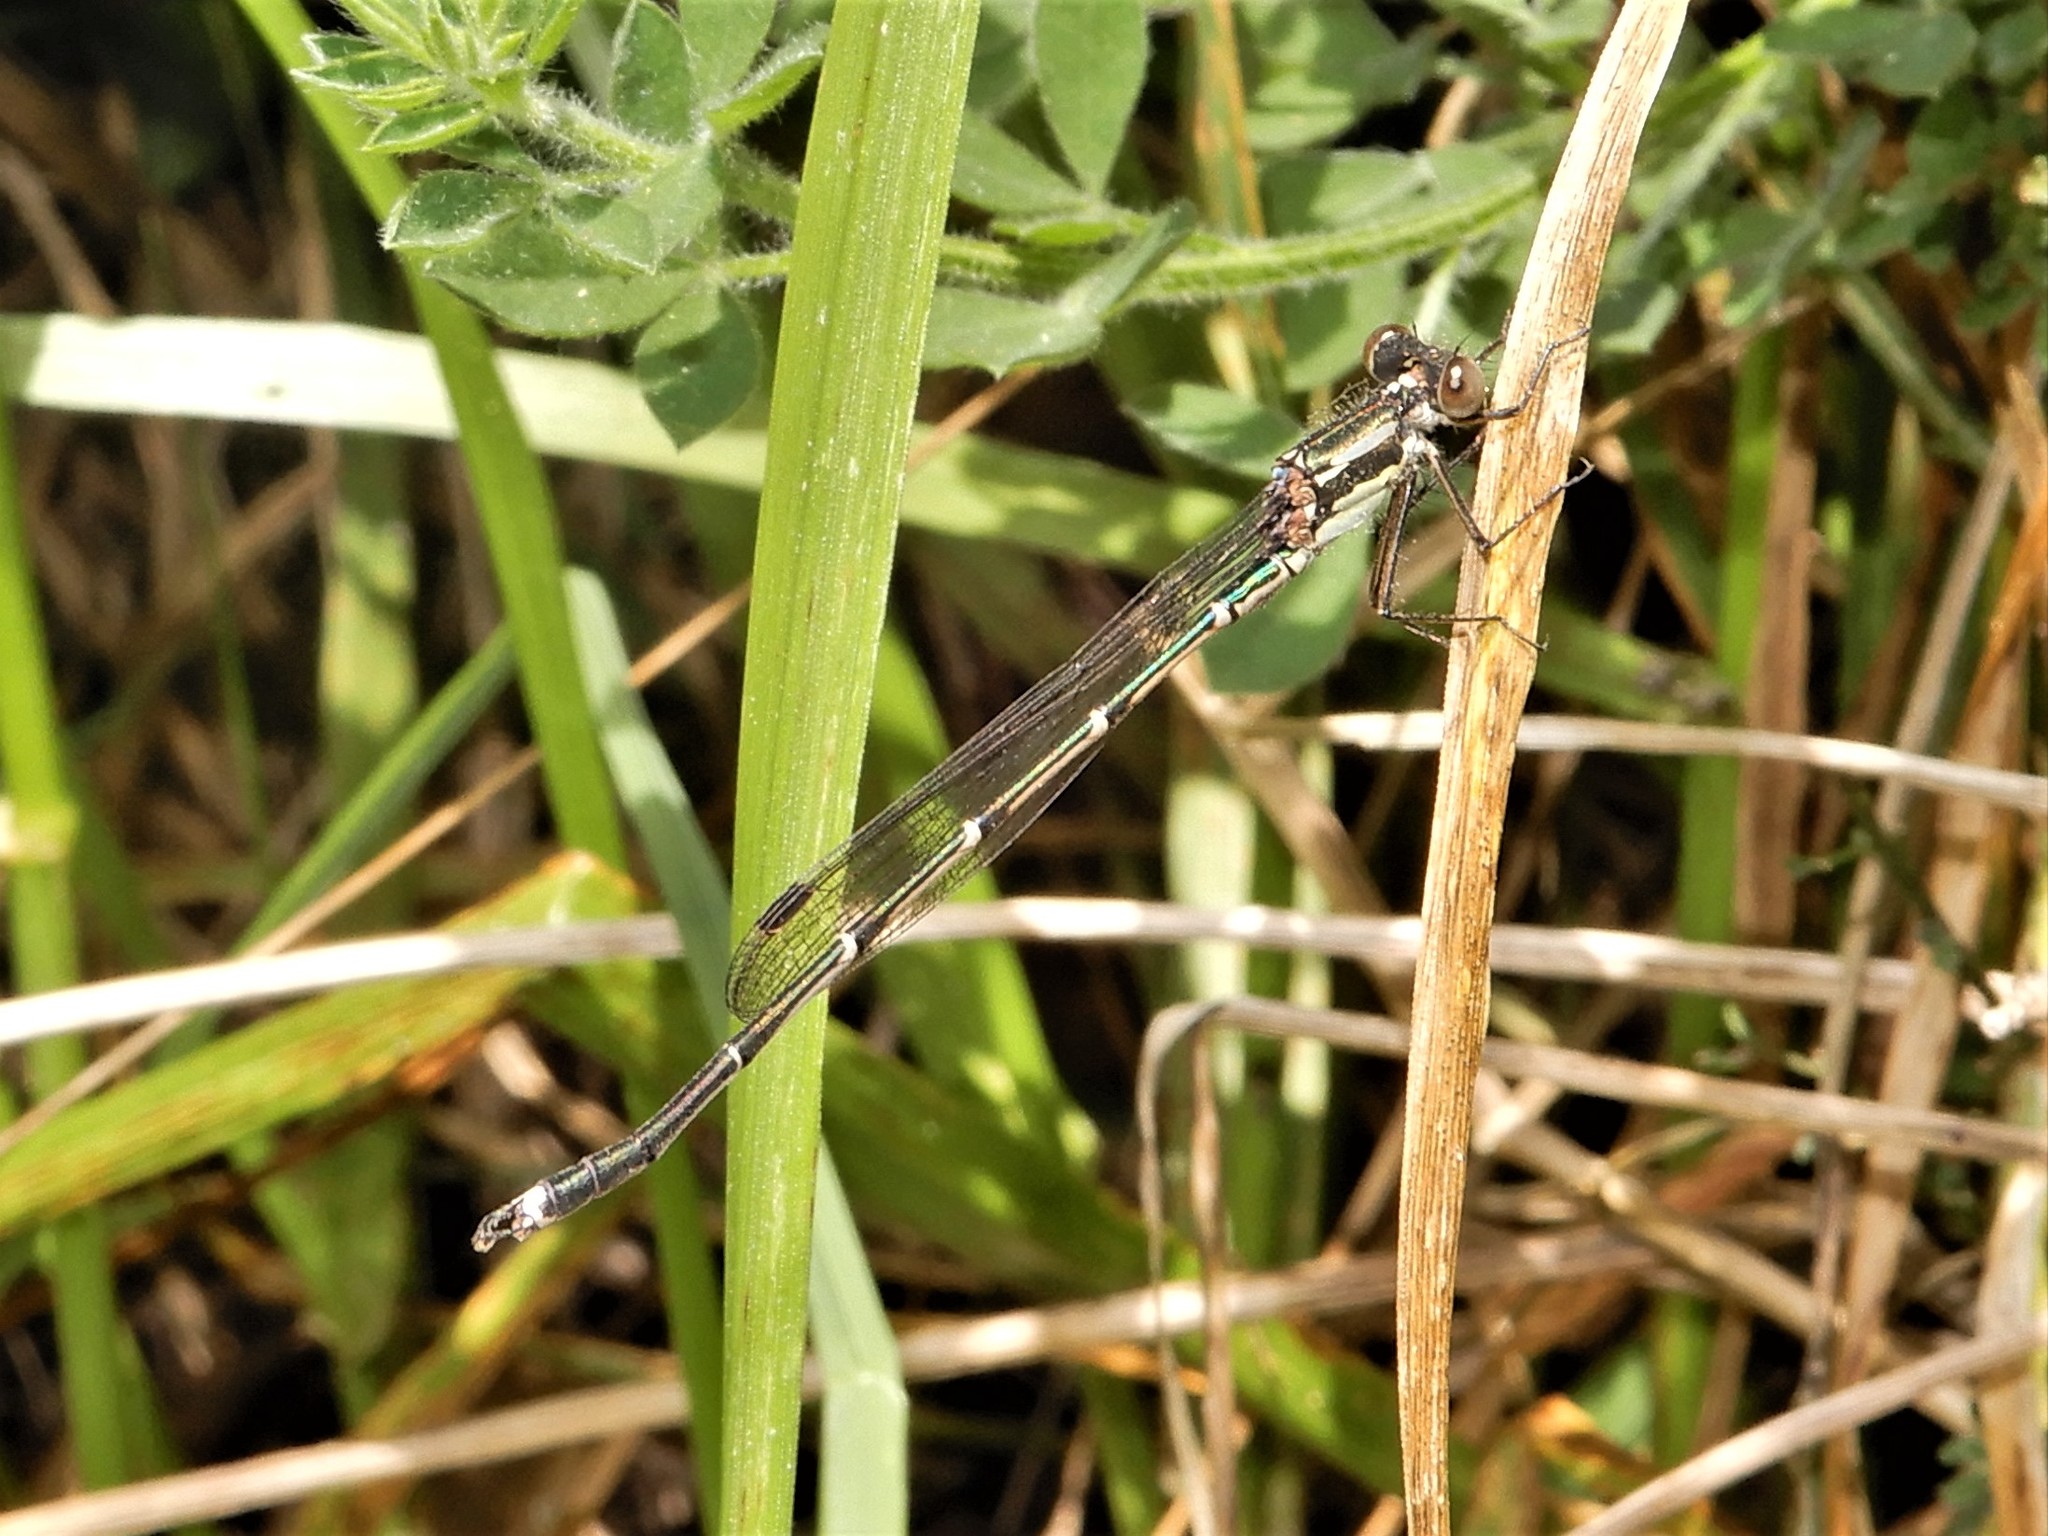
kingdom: Animalia
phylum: Arthropoda
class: Insecta
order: Odonata
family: Lestidae
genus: Austrolestes
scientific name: Austrolestes colensonis
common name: Blue damselfly
